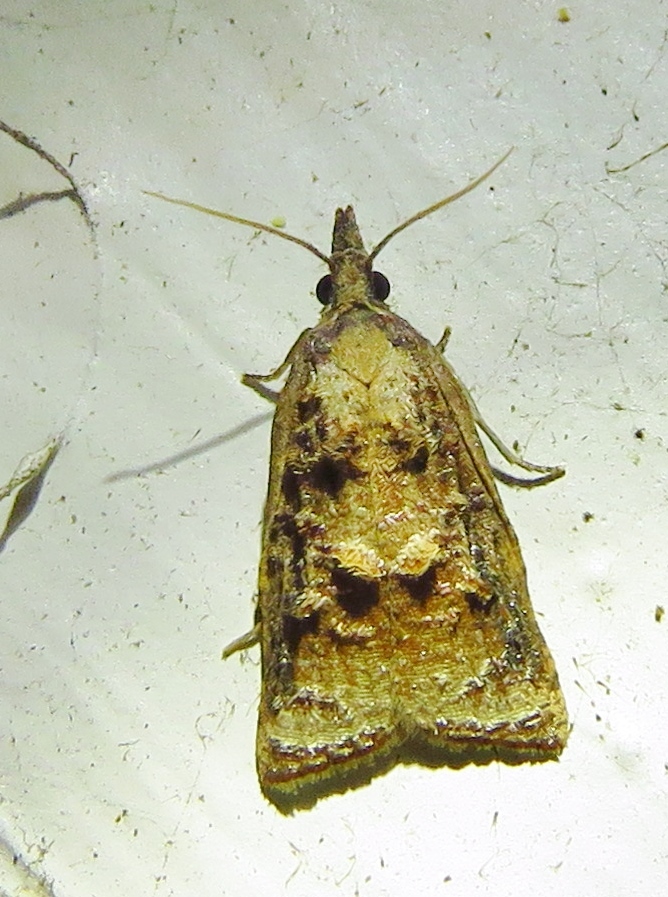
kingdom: Animalia
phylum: Arthropoda
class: Insecta
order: Lepidoptera
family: Tortricidae
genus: Platynota
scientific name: Platynota idaeusalis
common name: Tufted apple bud moth
